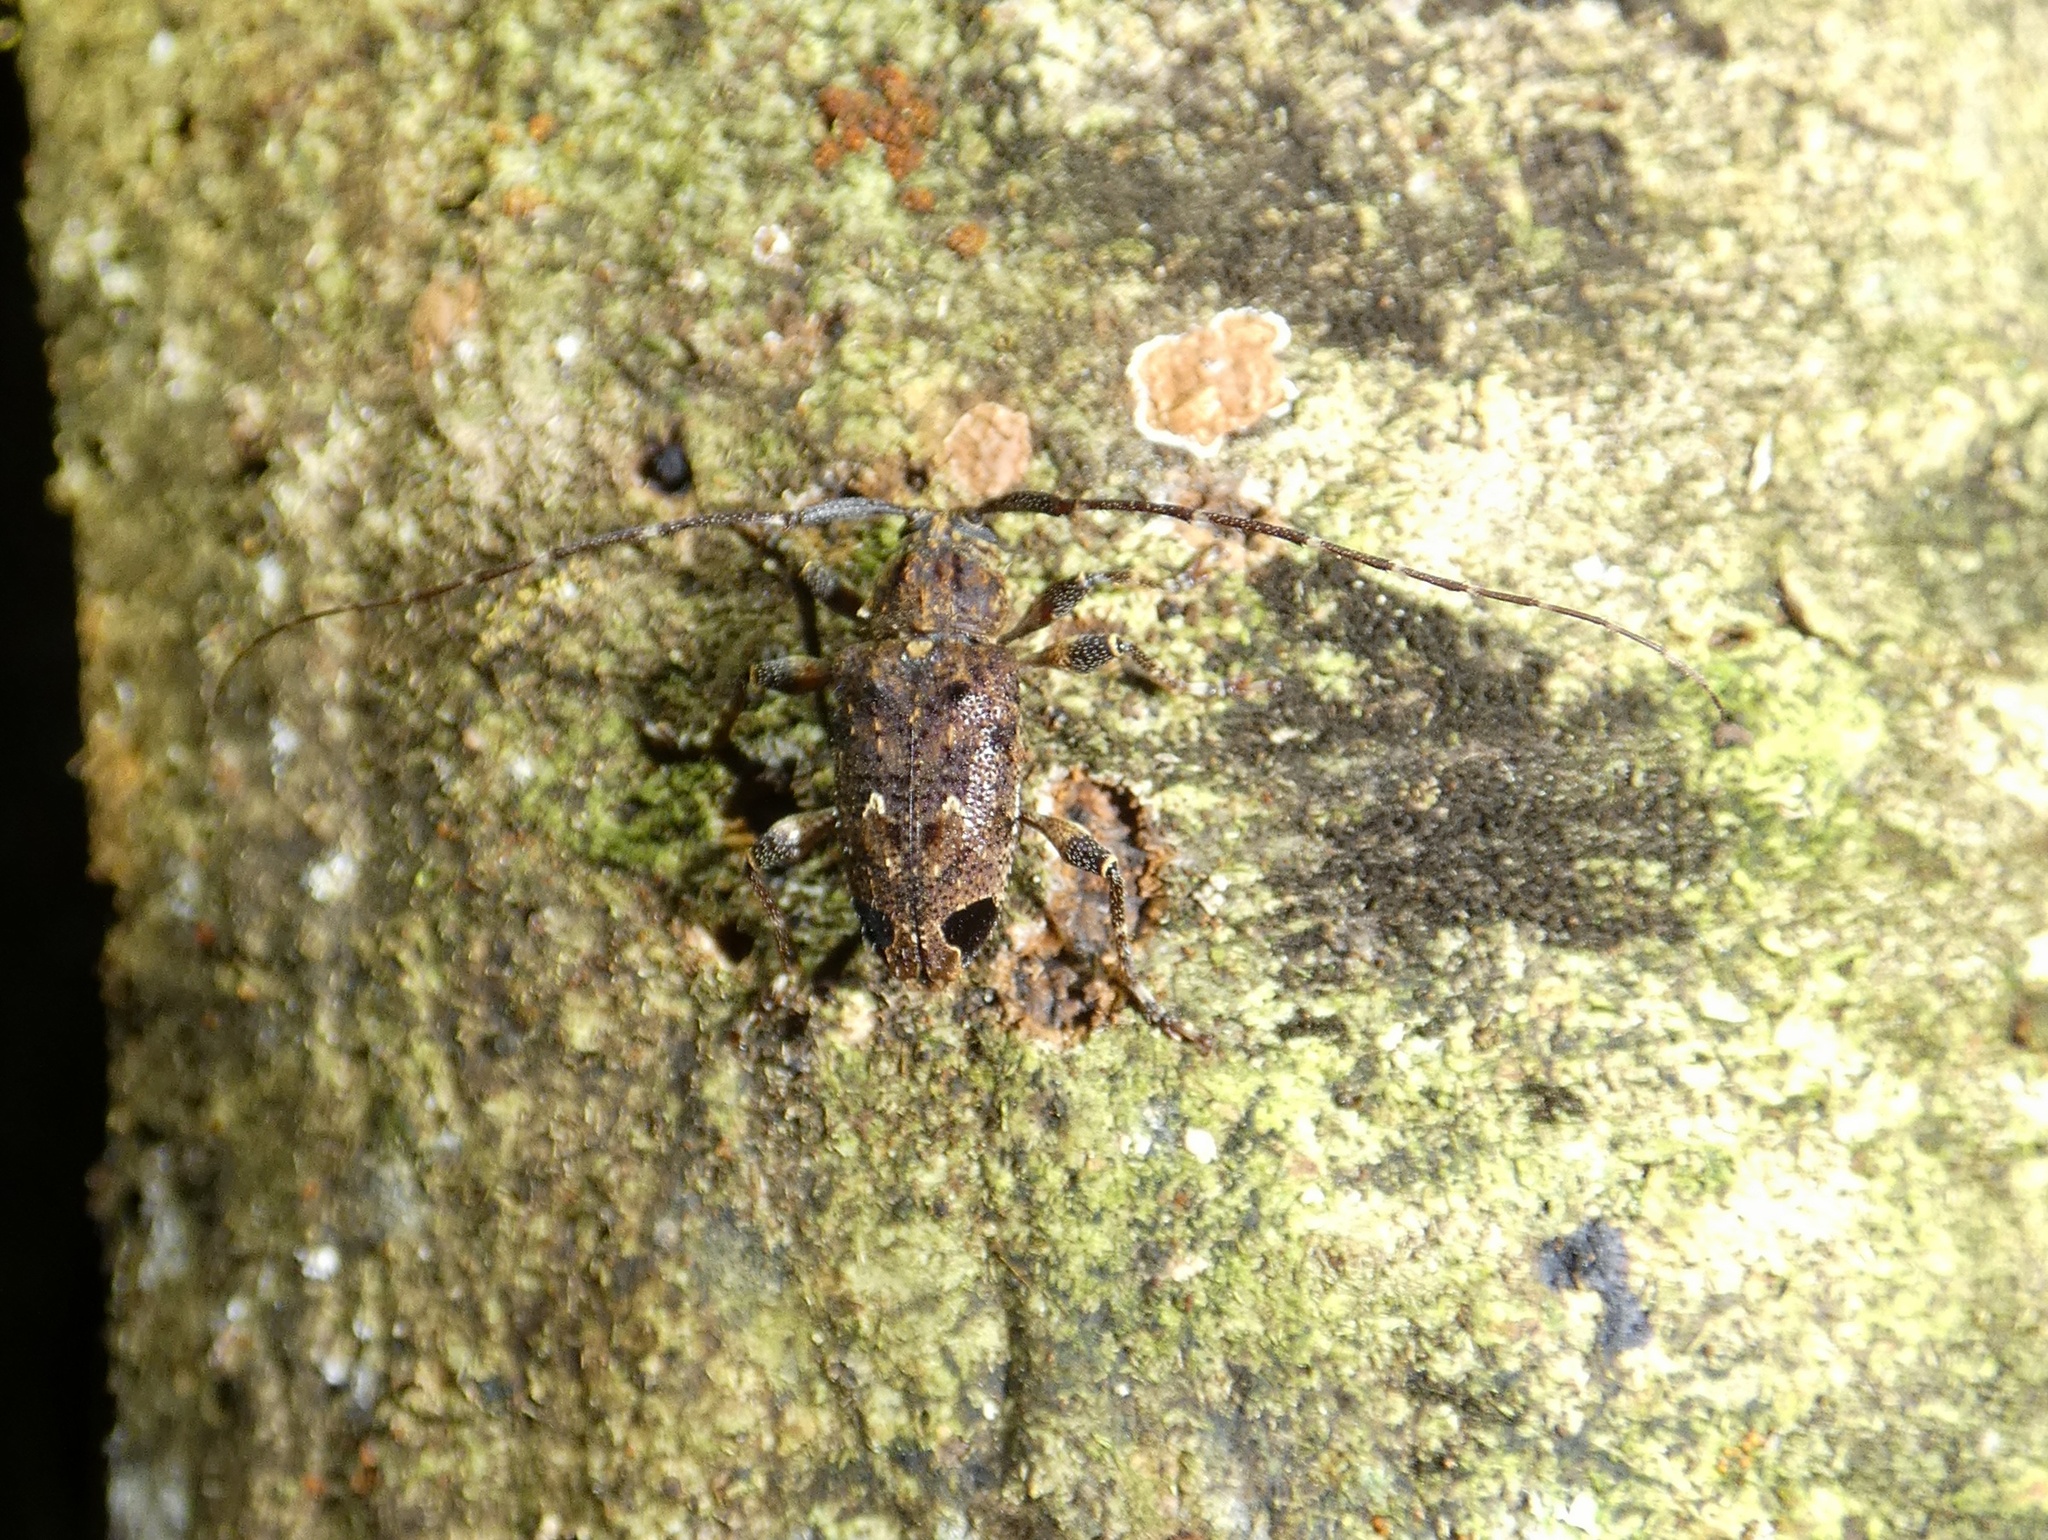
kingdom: Animalia
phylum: Arthropoda
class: Insecta
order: Coleoptera
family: Cerambycidae
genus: Oedopeza
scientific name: Oedopeza setigera
